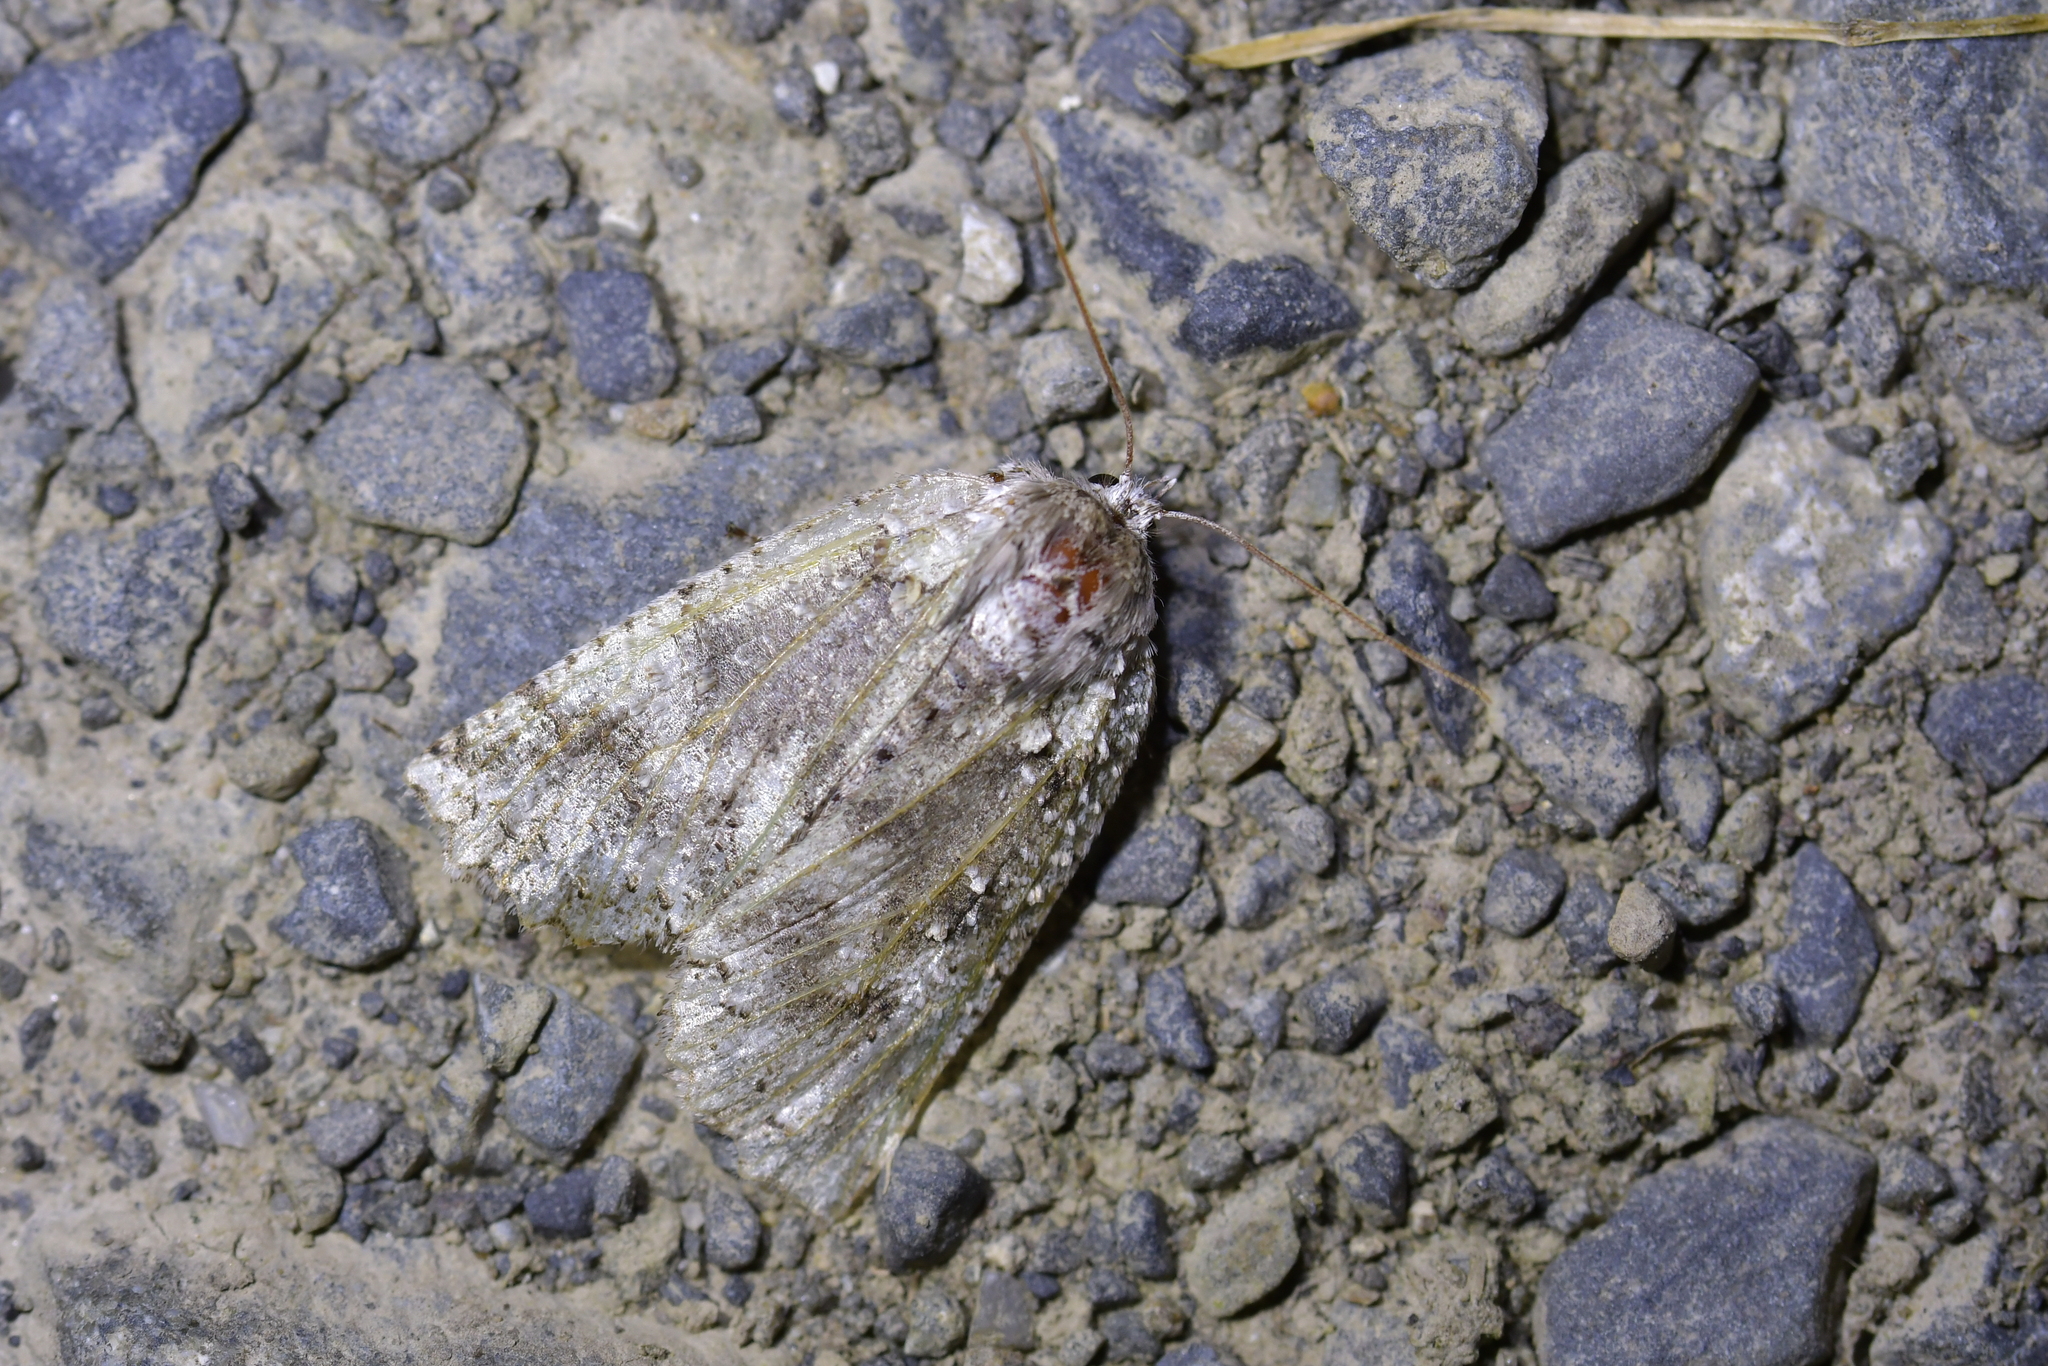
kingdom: Animalia
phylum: Arthropoda
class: Insecta
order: Lepidoptera
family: Geometridae
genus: Declana
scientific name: Declana floccosa
